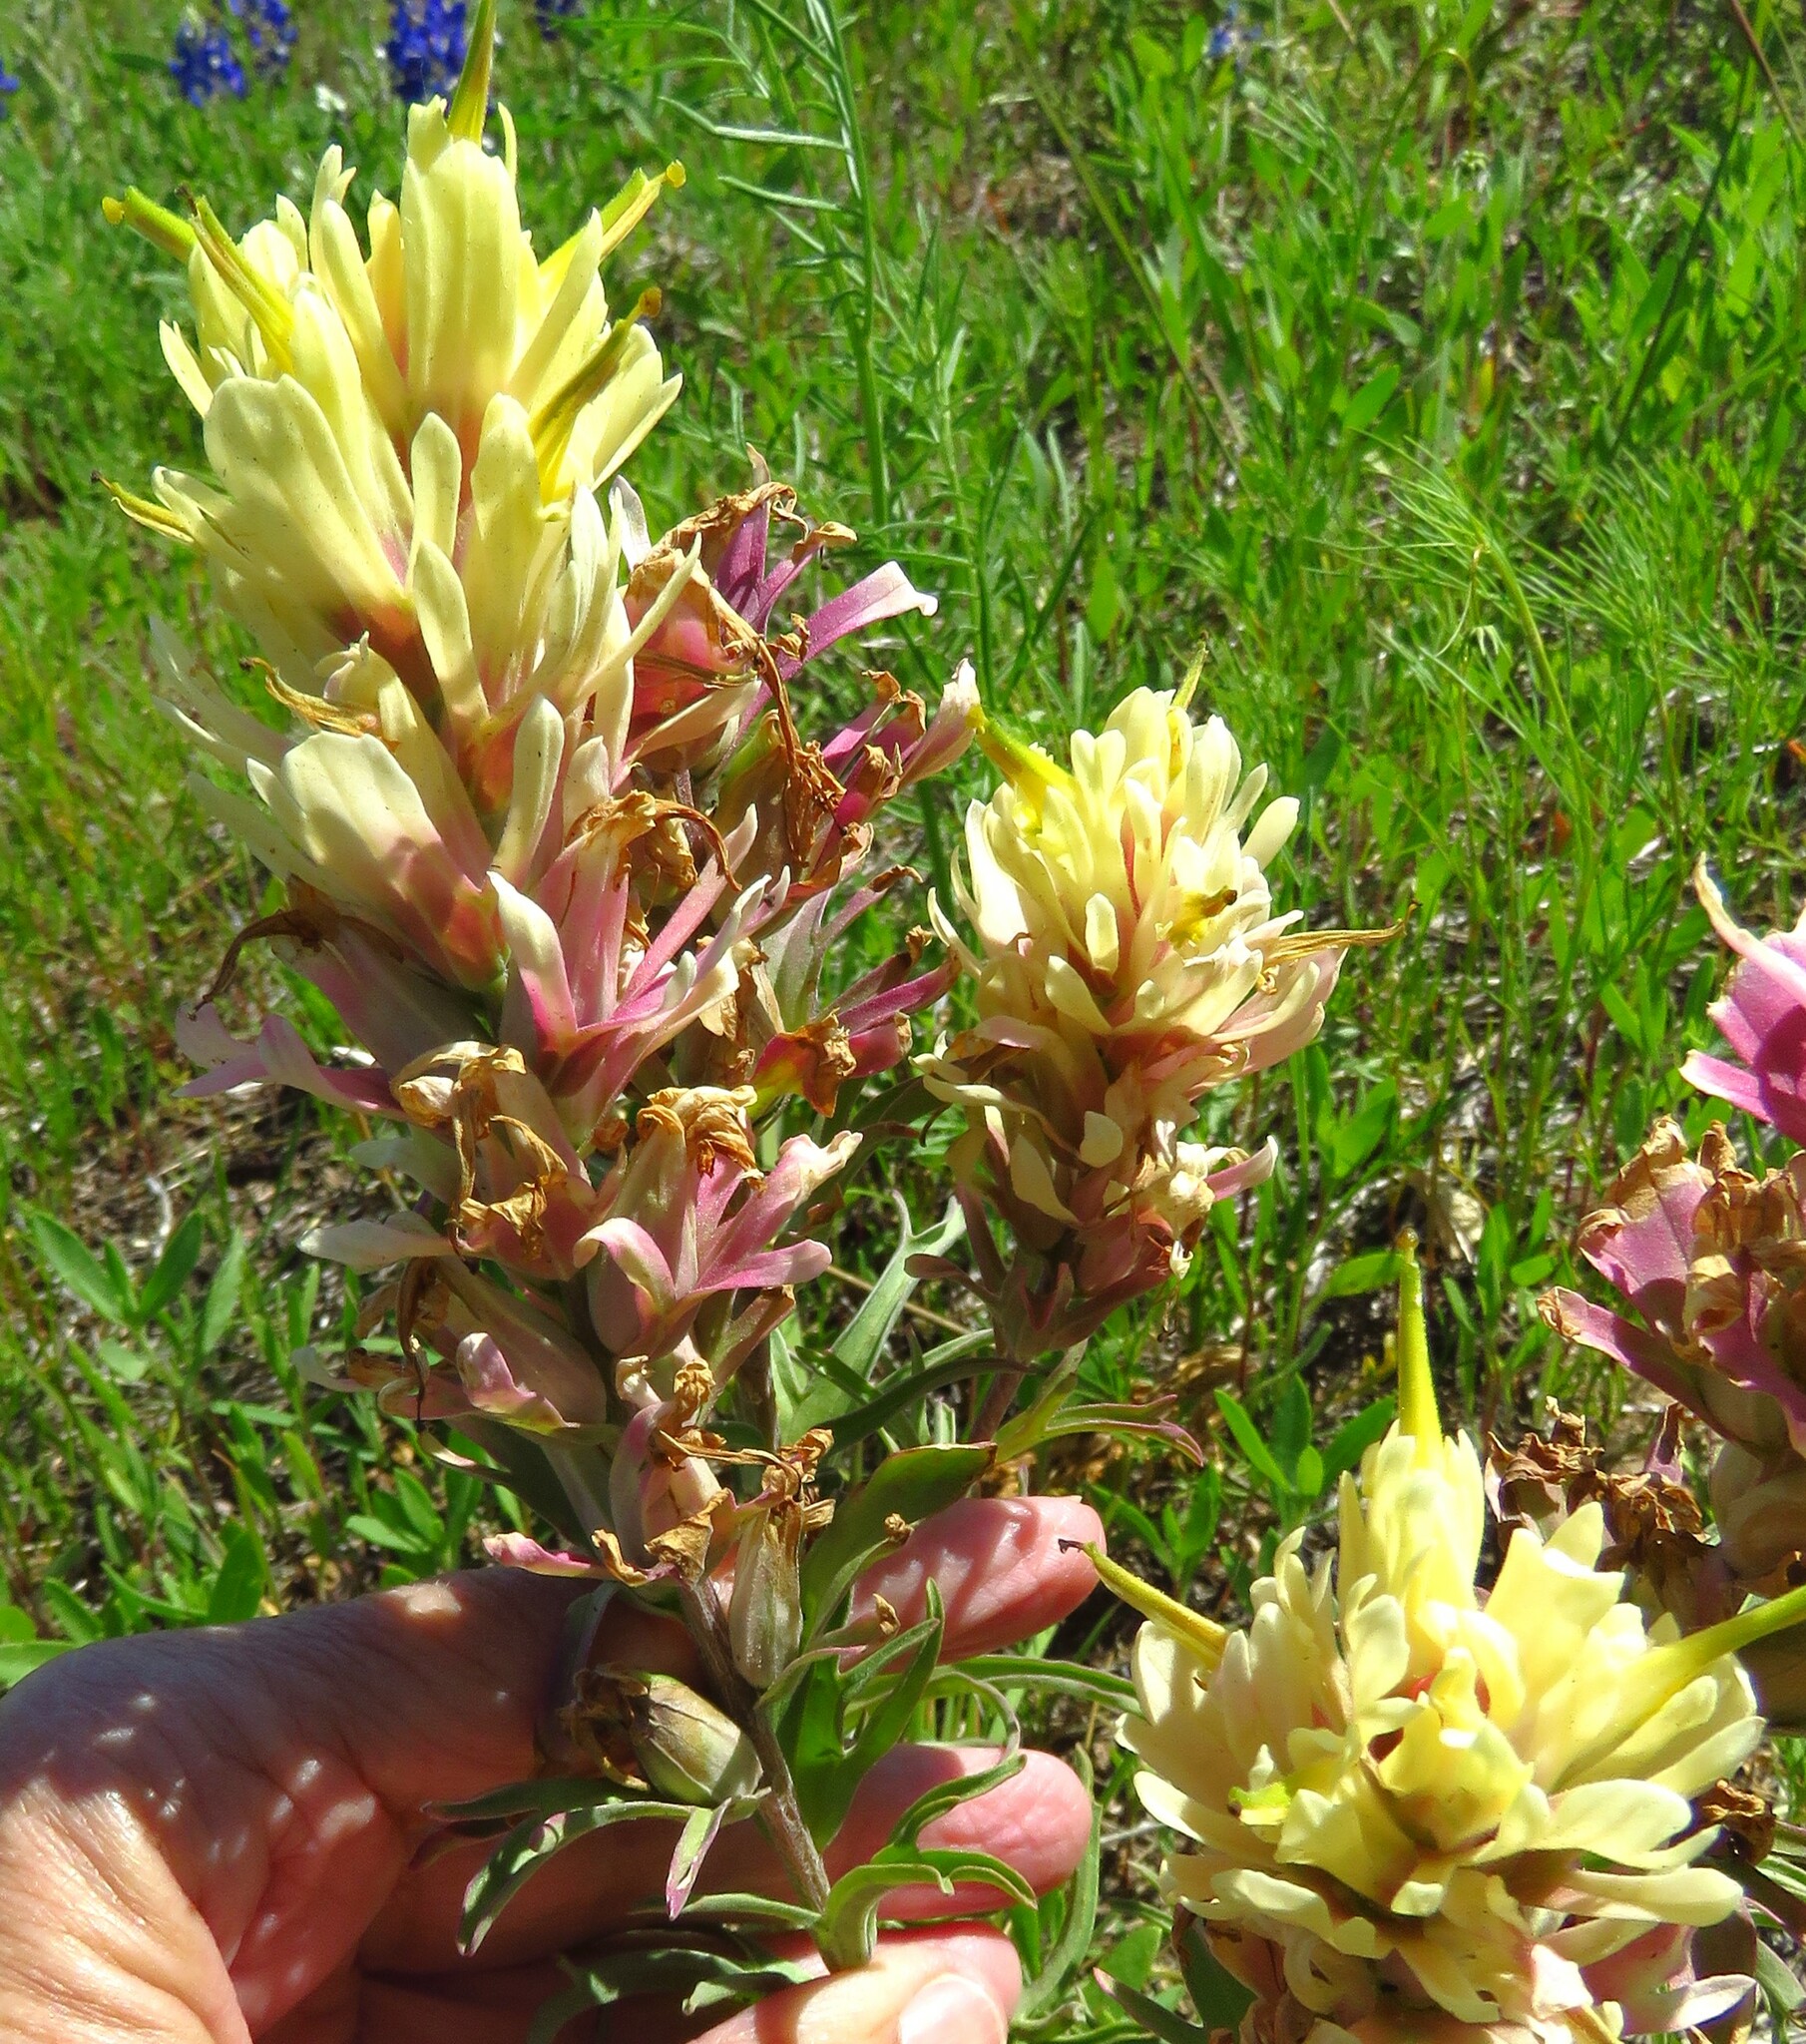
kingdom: Plantae
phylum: Tracheophyta
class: Magnoliopsida
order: Lamiales
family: Orobanchaceae
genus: Castilleja
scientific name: Castilleja purpurea
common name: Plains paintbrush
